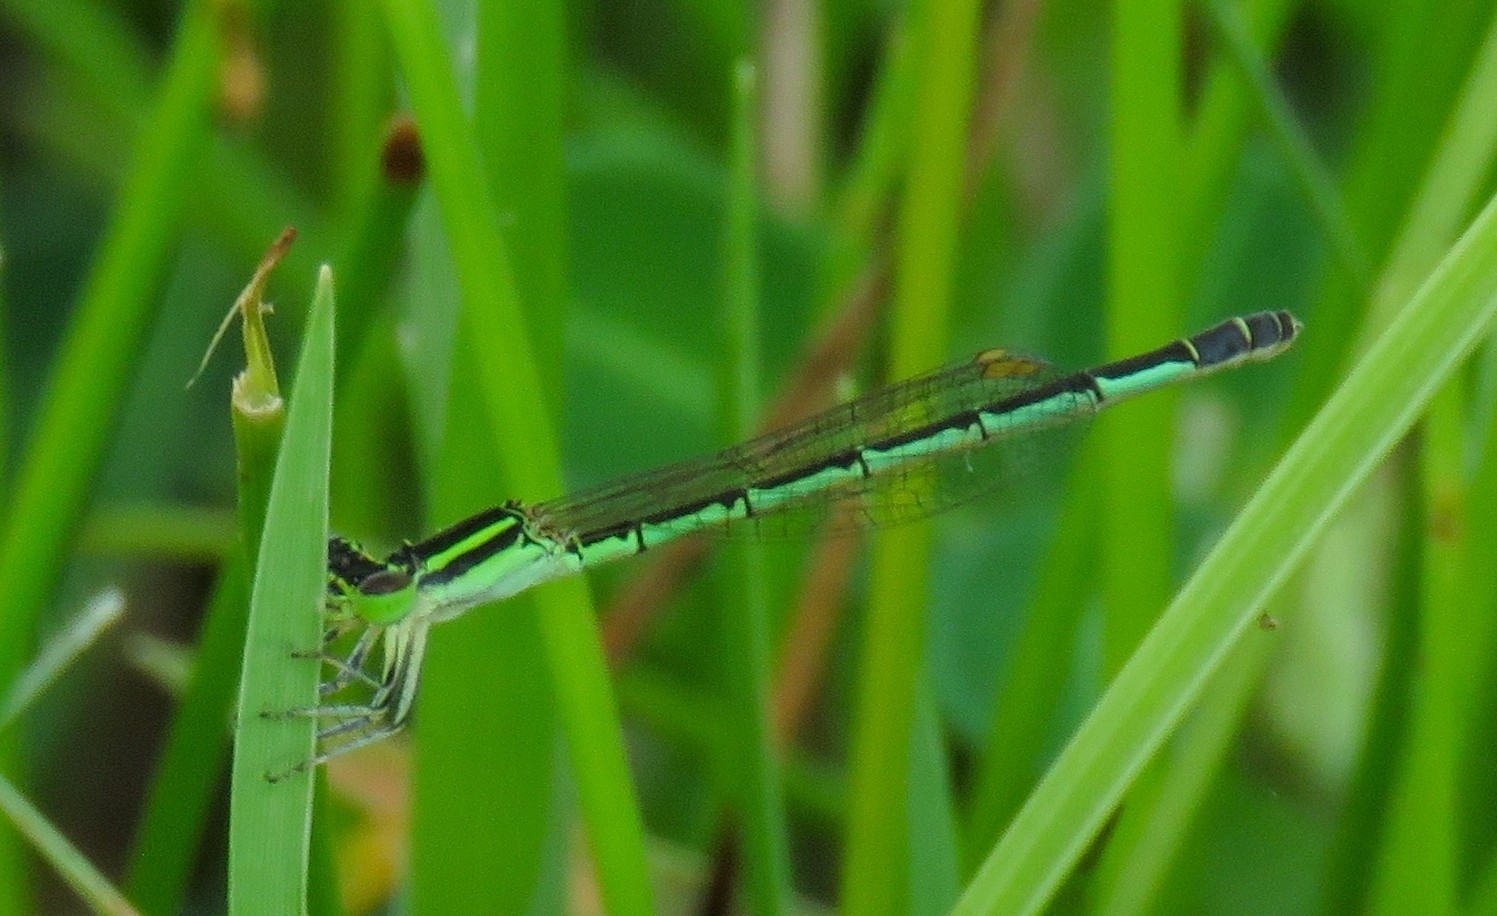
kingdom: Animalia
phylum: Arthropoda
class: Insecta
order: Odonata
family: Coenagrionidae
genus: Agriocnemis
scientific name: Agriocnemis keralensis
